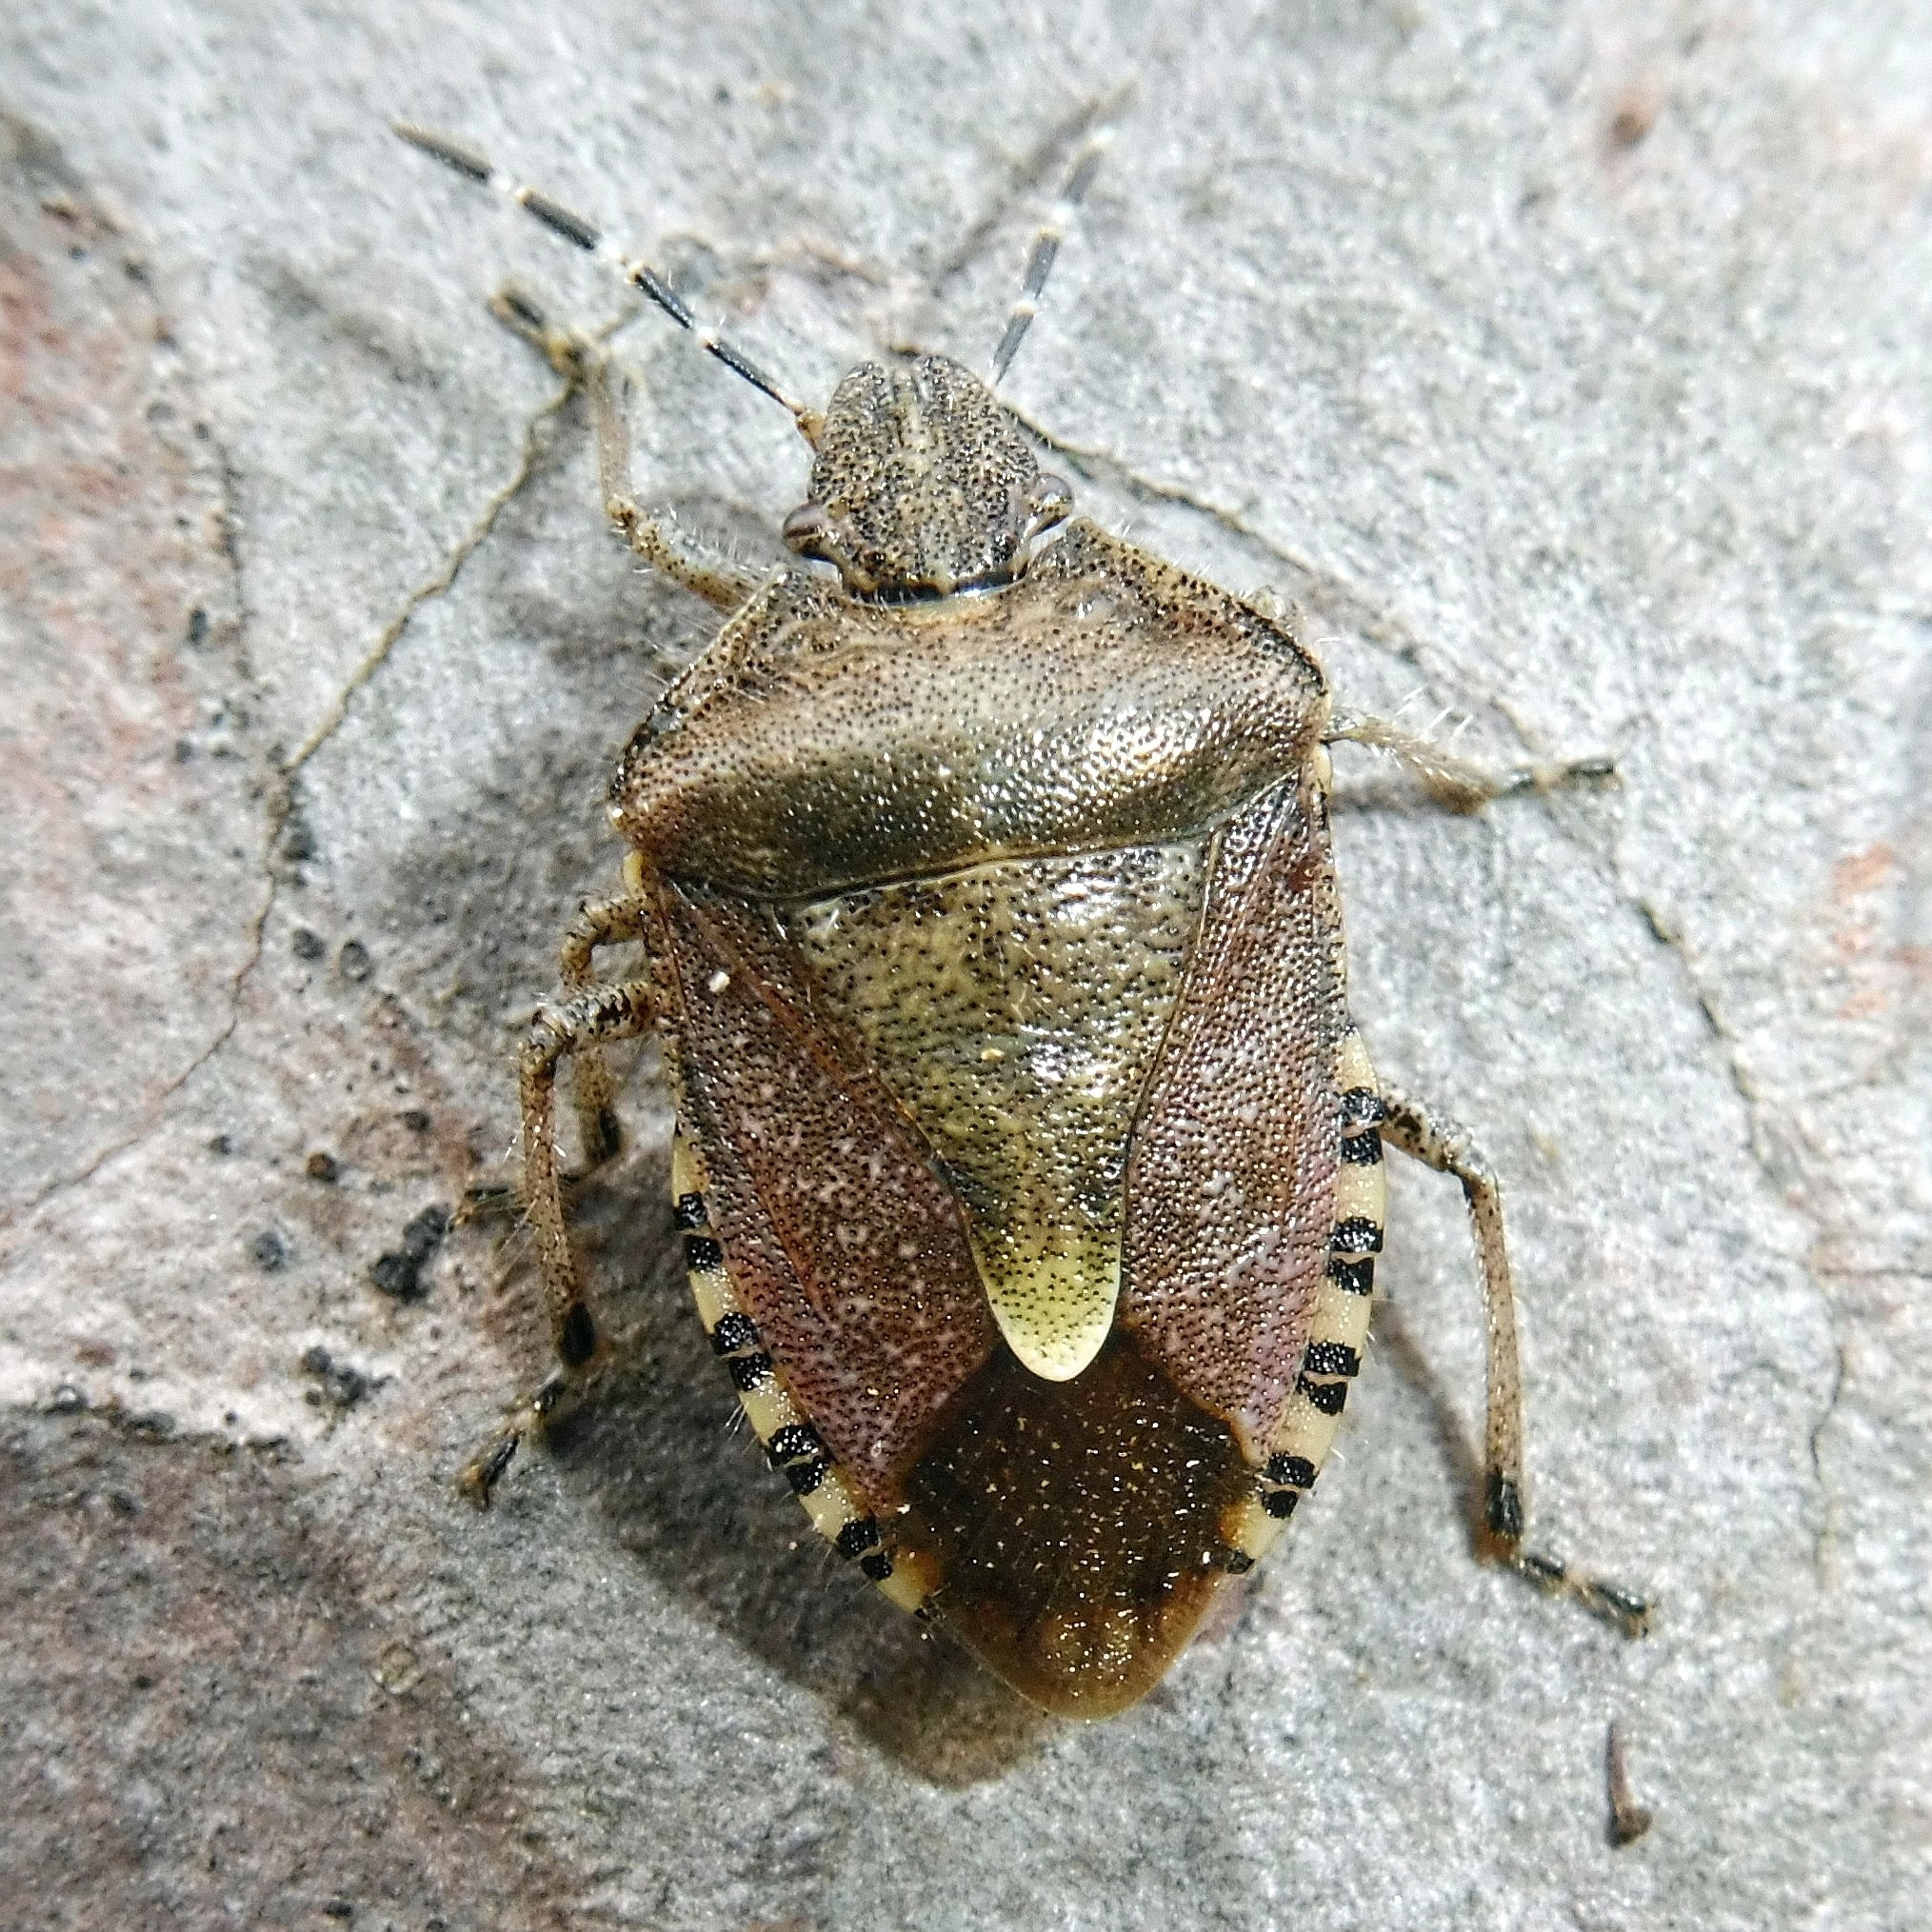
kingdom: Animalia
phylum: Arthropoda
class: Insecta
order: Hemiptera
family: Pentatomidae
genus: Dolycoris
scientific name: Dolycoris baccarum
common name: Sloe bug
